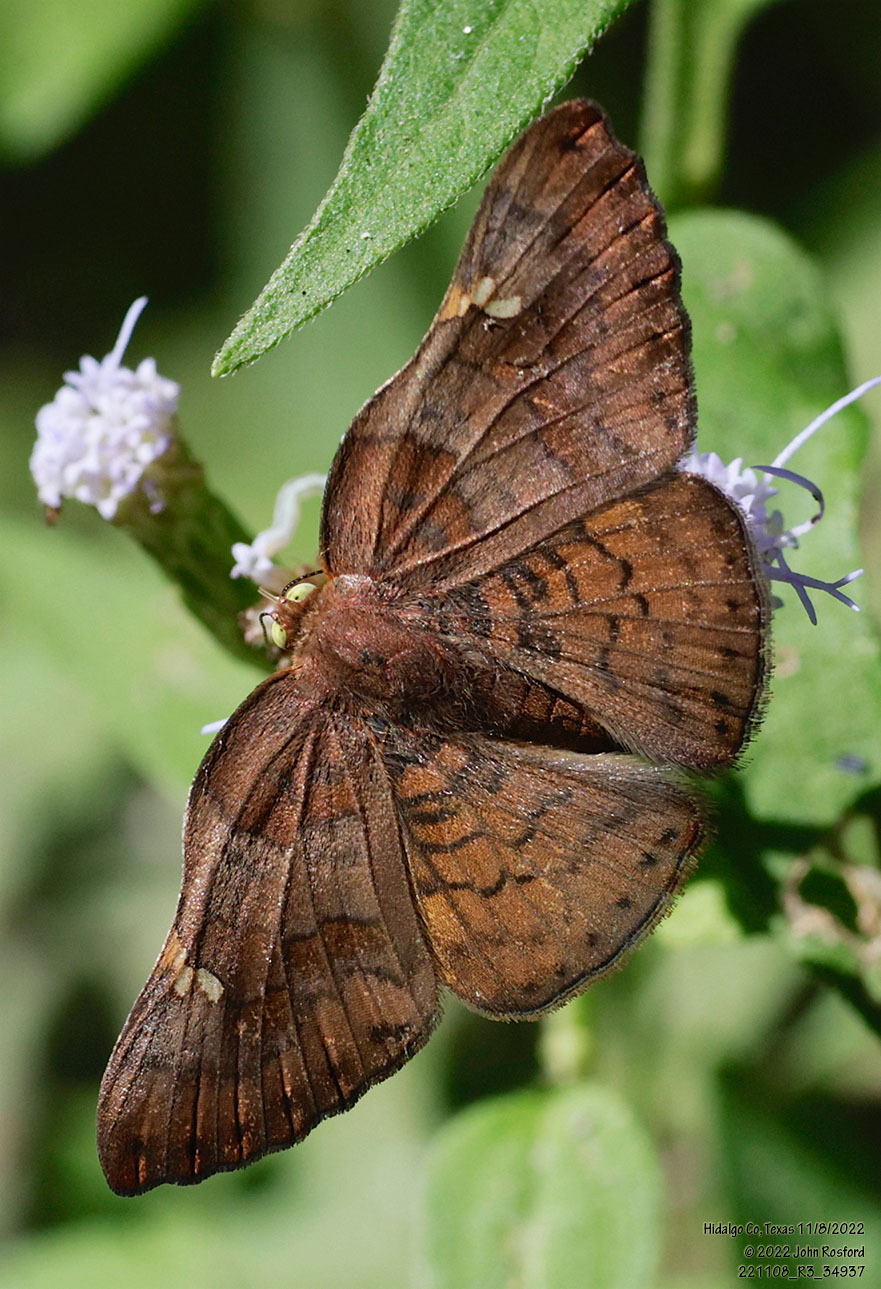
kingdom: Animalia
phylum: Arthropoda
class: Insecta
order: Lepidoptera
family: Riodinidae
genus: Curvie
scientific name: Curvie emesia
